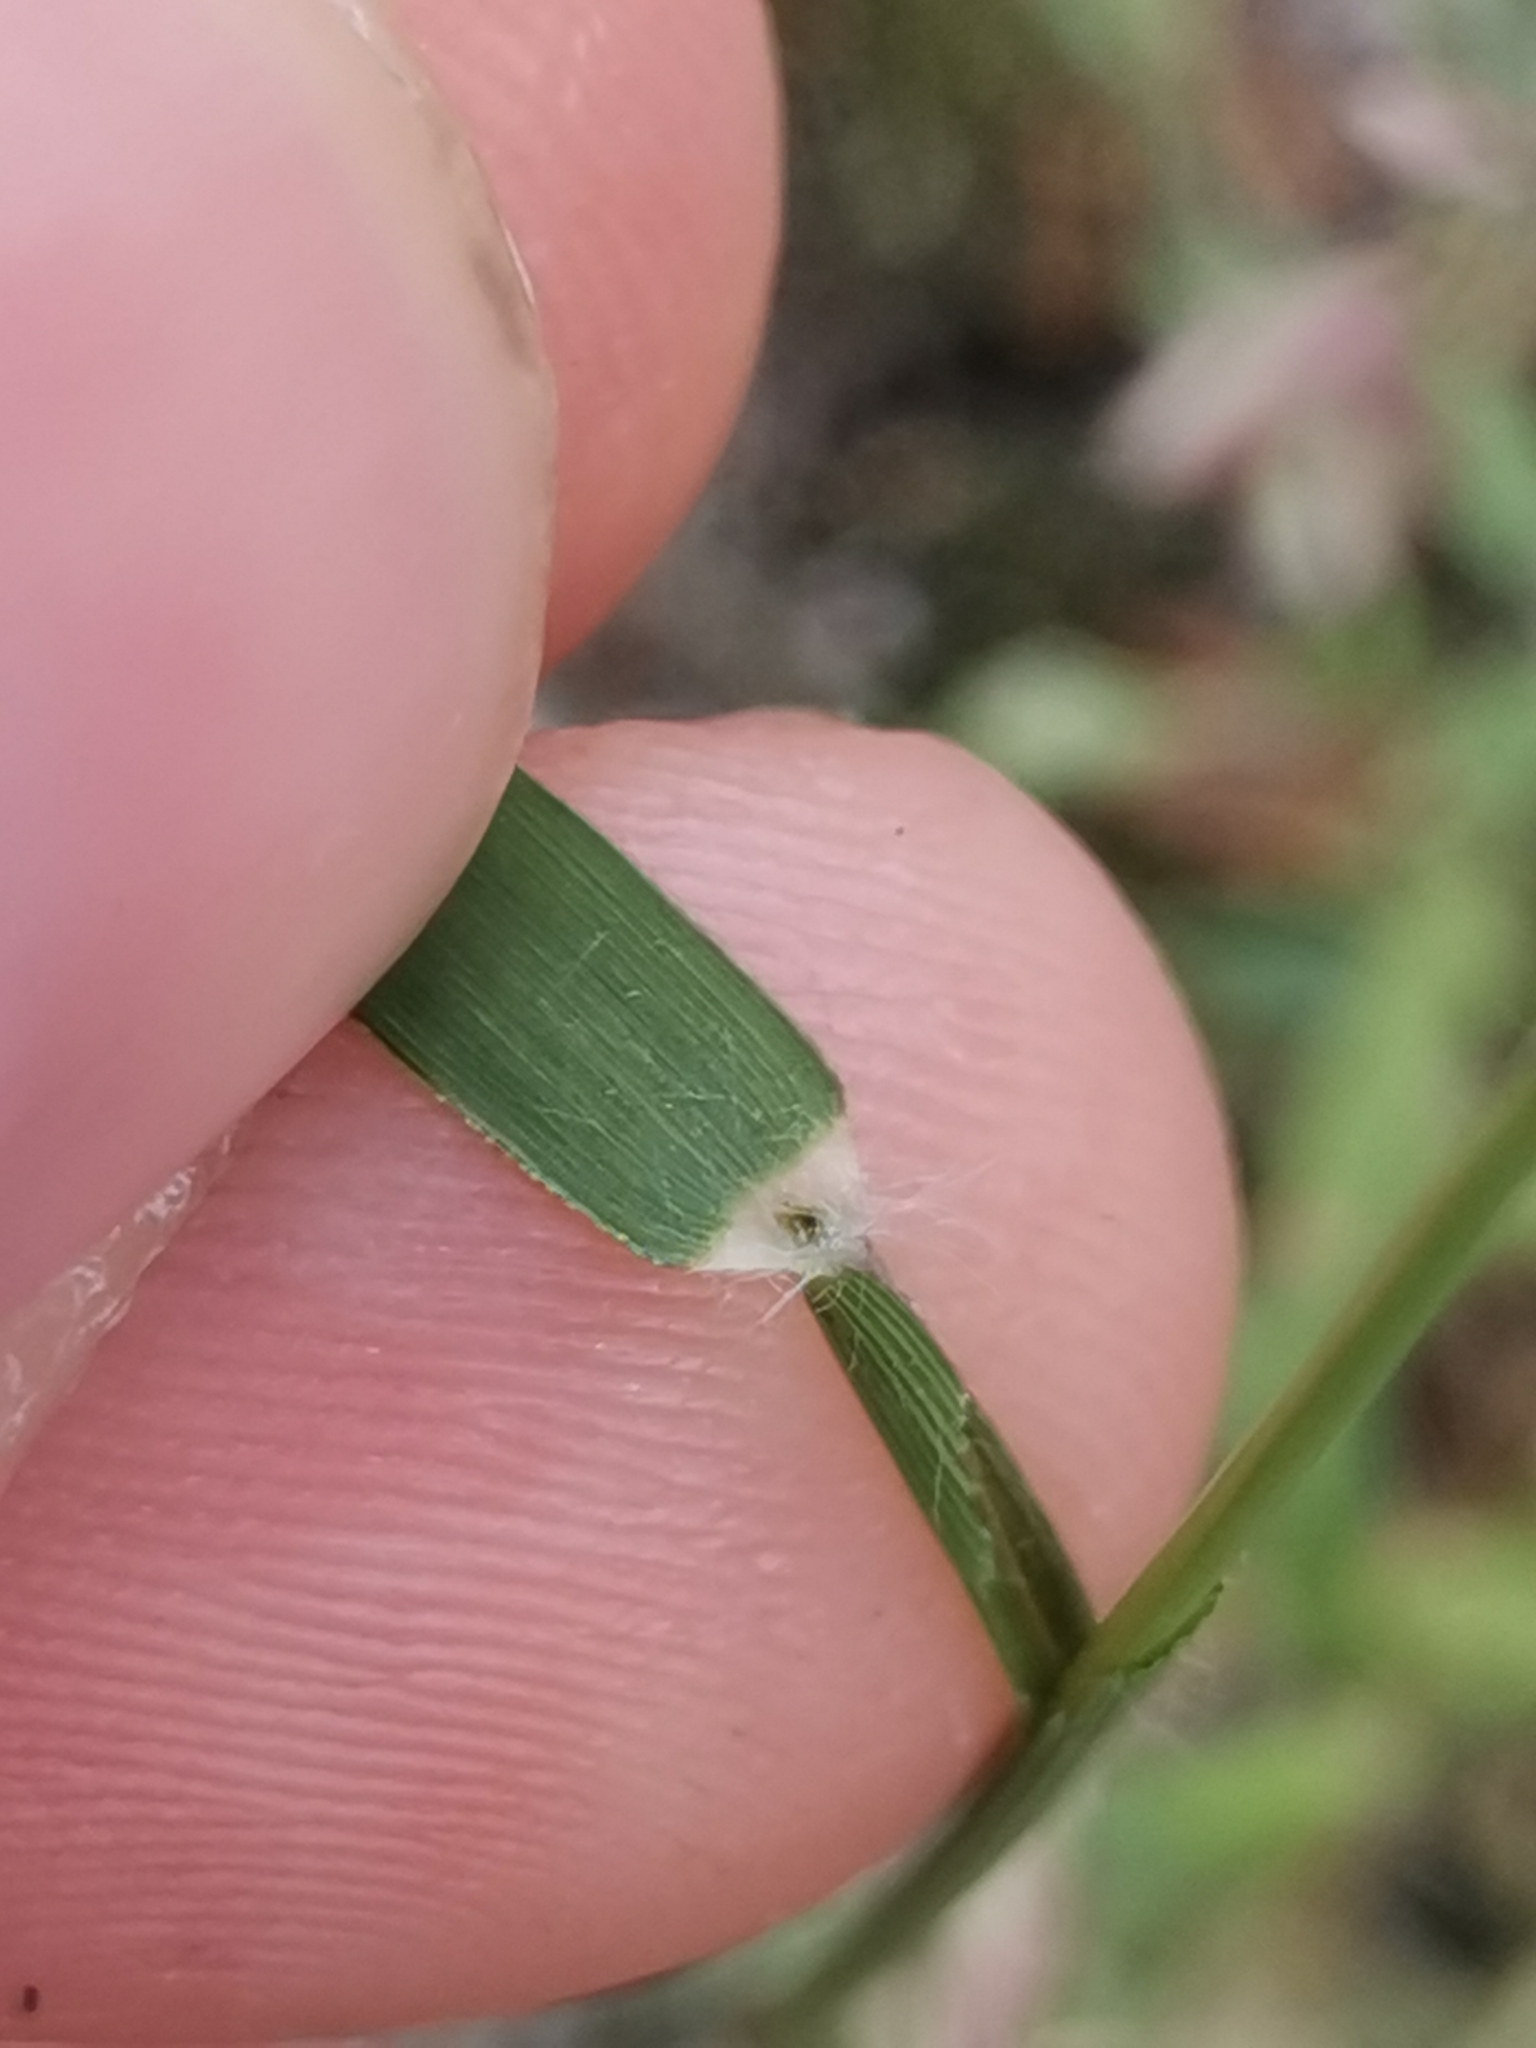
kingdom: Plantae
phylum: Tracheophyta
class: Liliopsida
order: Poales
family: Poaceae
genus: Eragrostis
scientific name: Eragrostis minor
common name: Small love-grass
